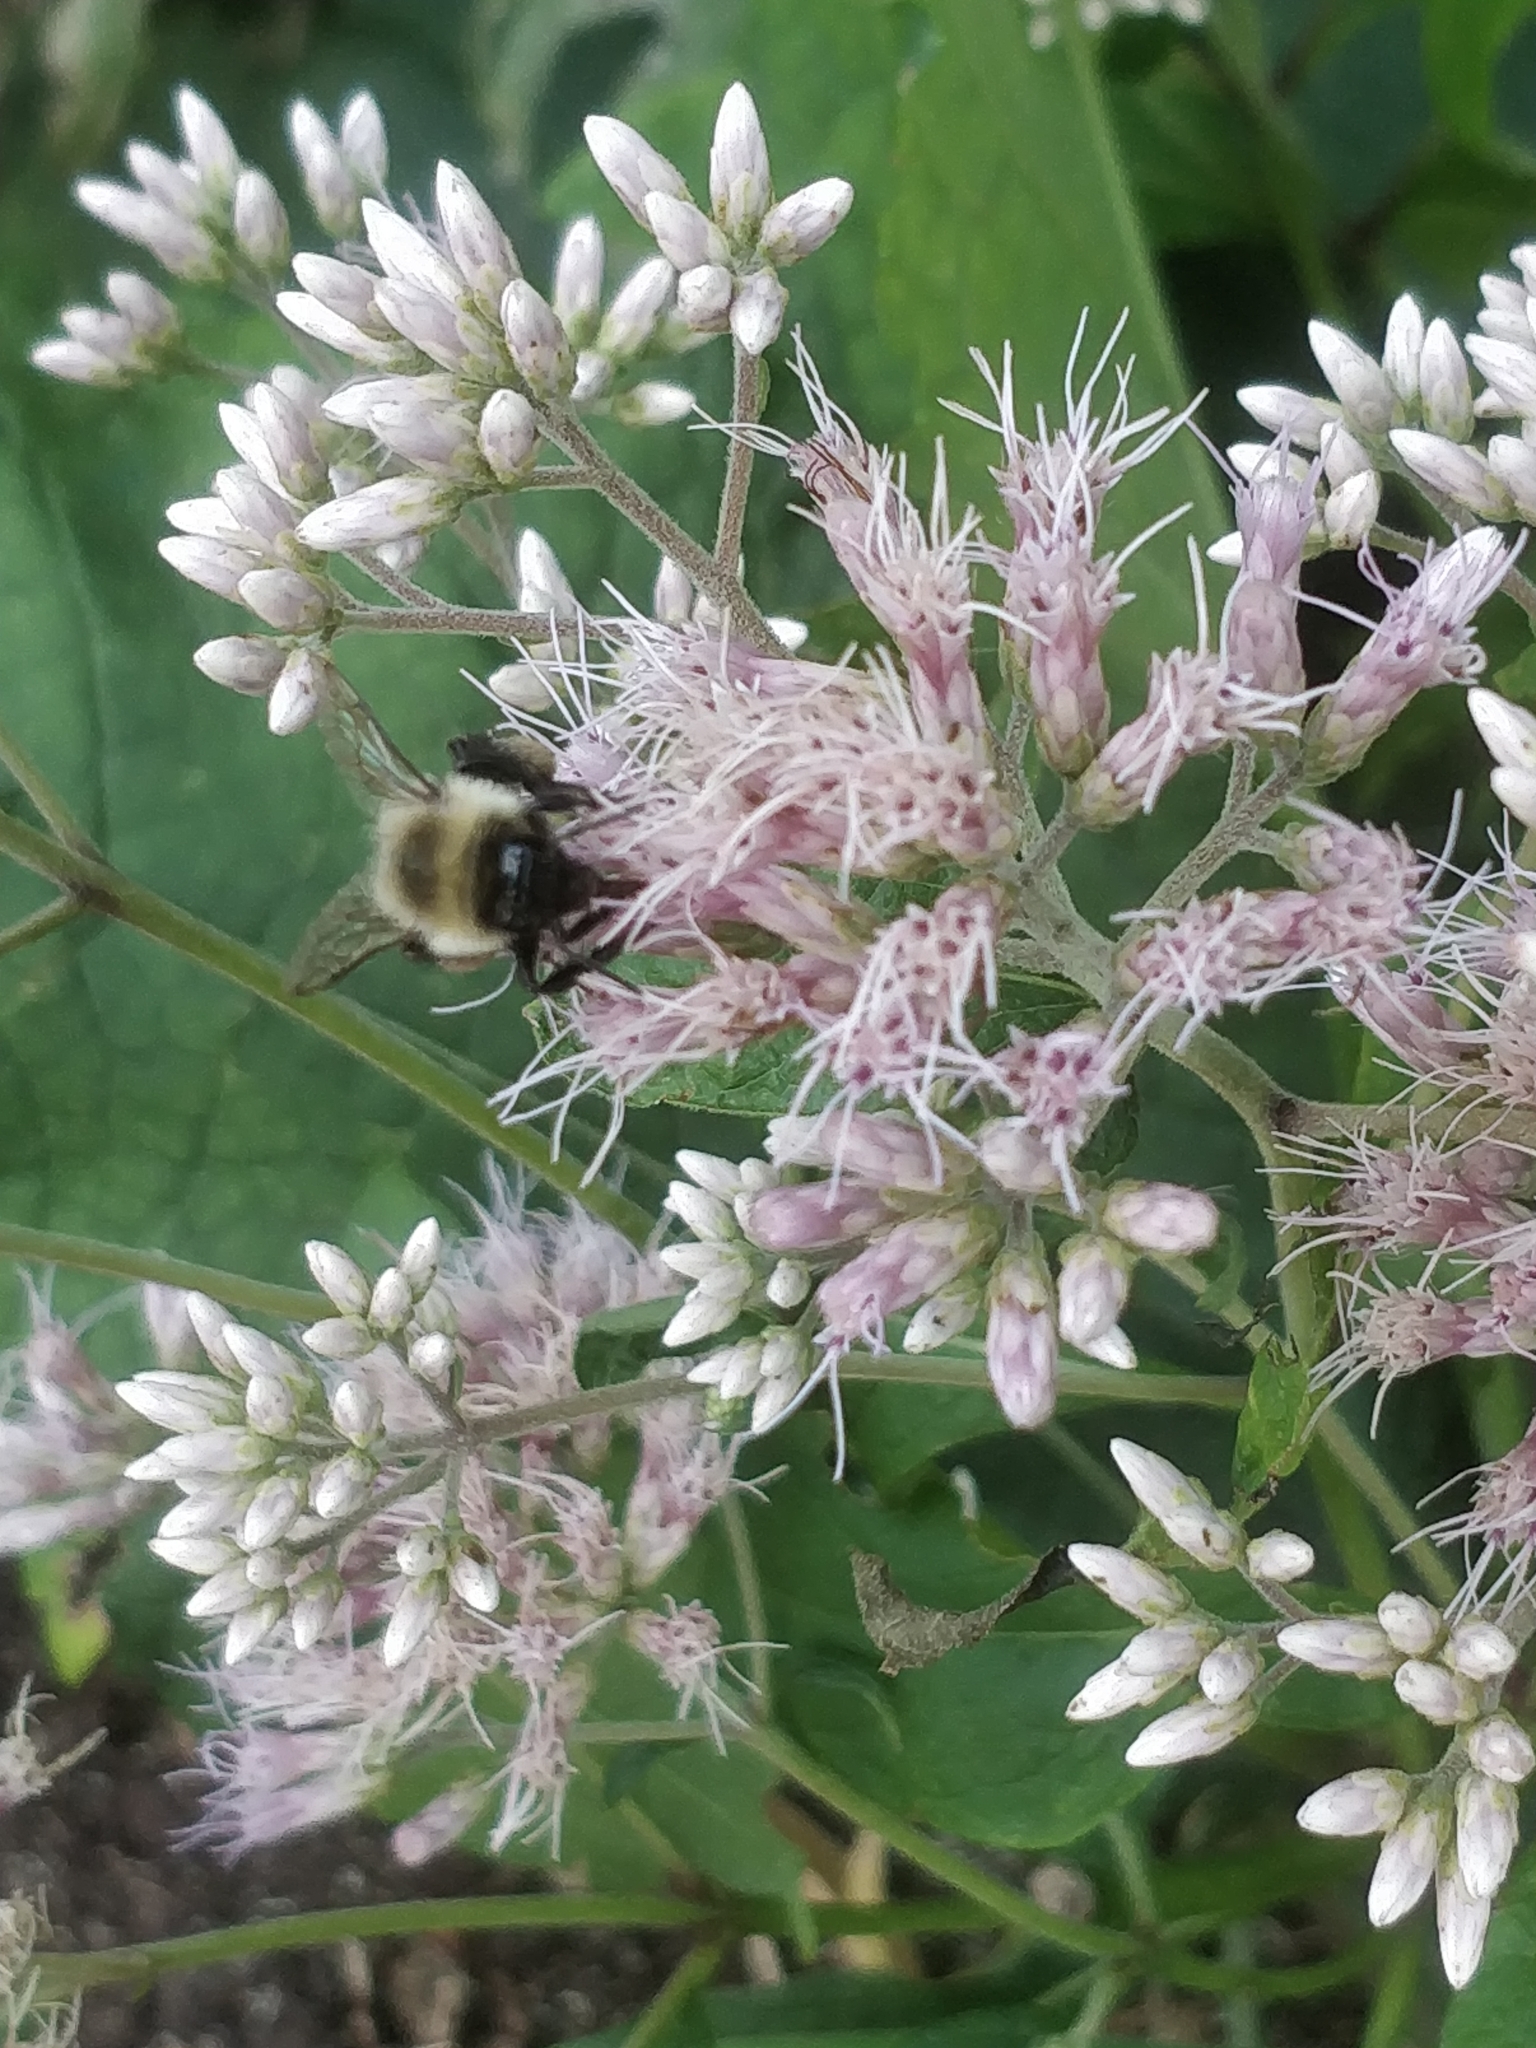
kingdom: Animalia
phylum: Arthropoda
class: Insecta
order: Hymenoptera
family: Apidae
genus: Bombus
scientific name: Bombus impatiens
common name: Common eastern bumble bee
